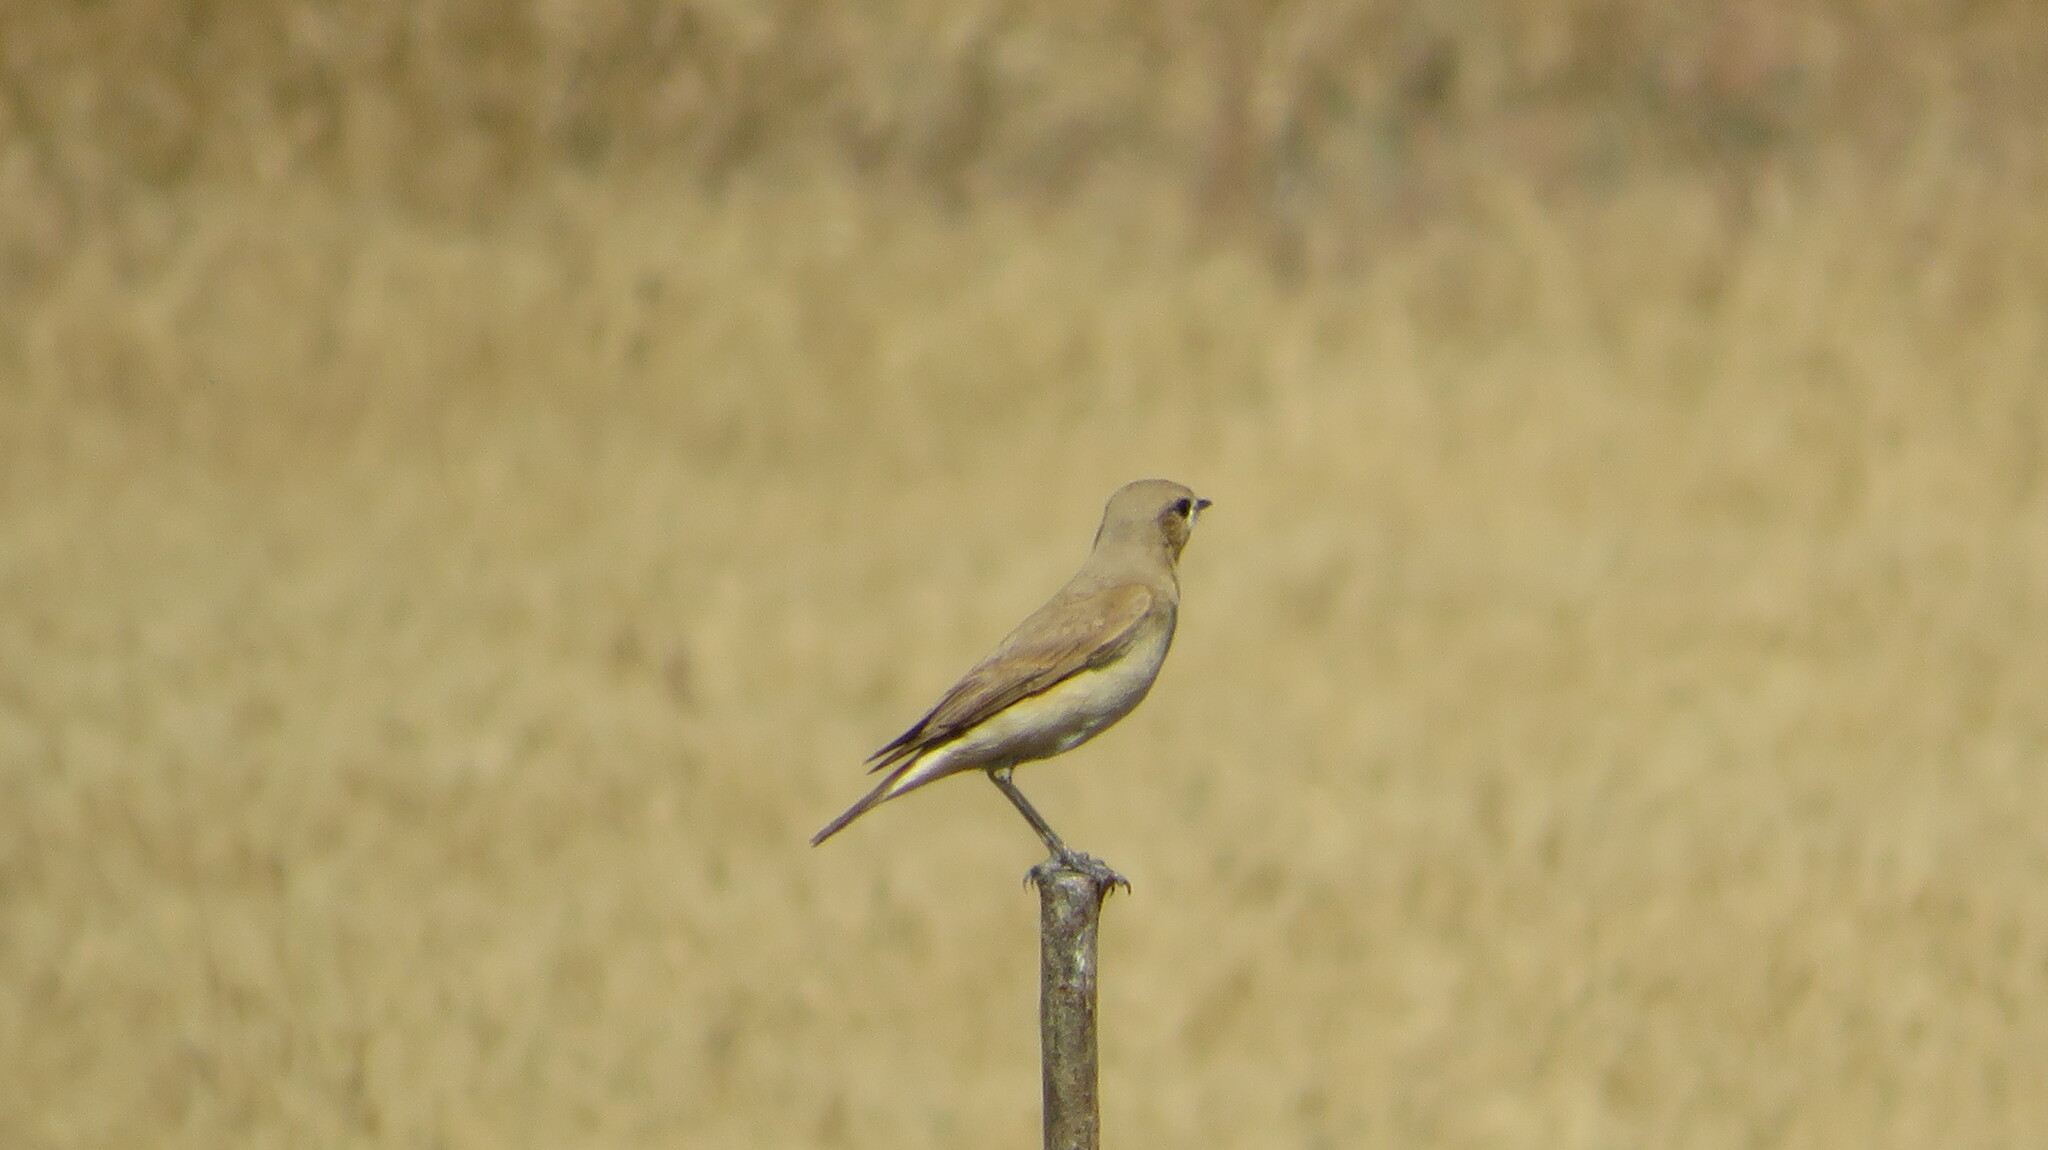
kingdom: Animalia
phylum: Chordata
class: Aves
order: Passeriformes
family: Muscicapidae
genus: Oenanthe
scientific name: Oenanthe isabellina
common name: Isabelline wheatear
